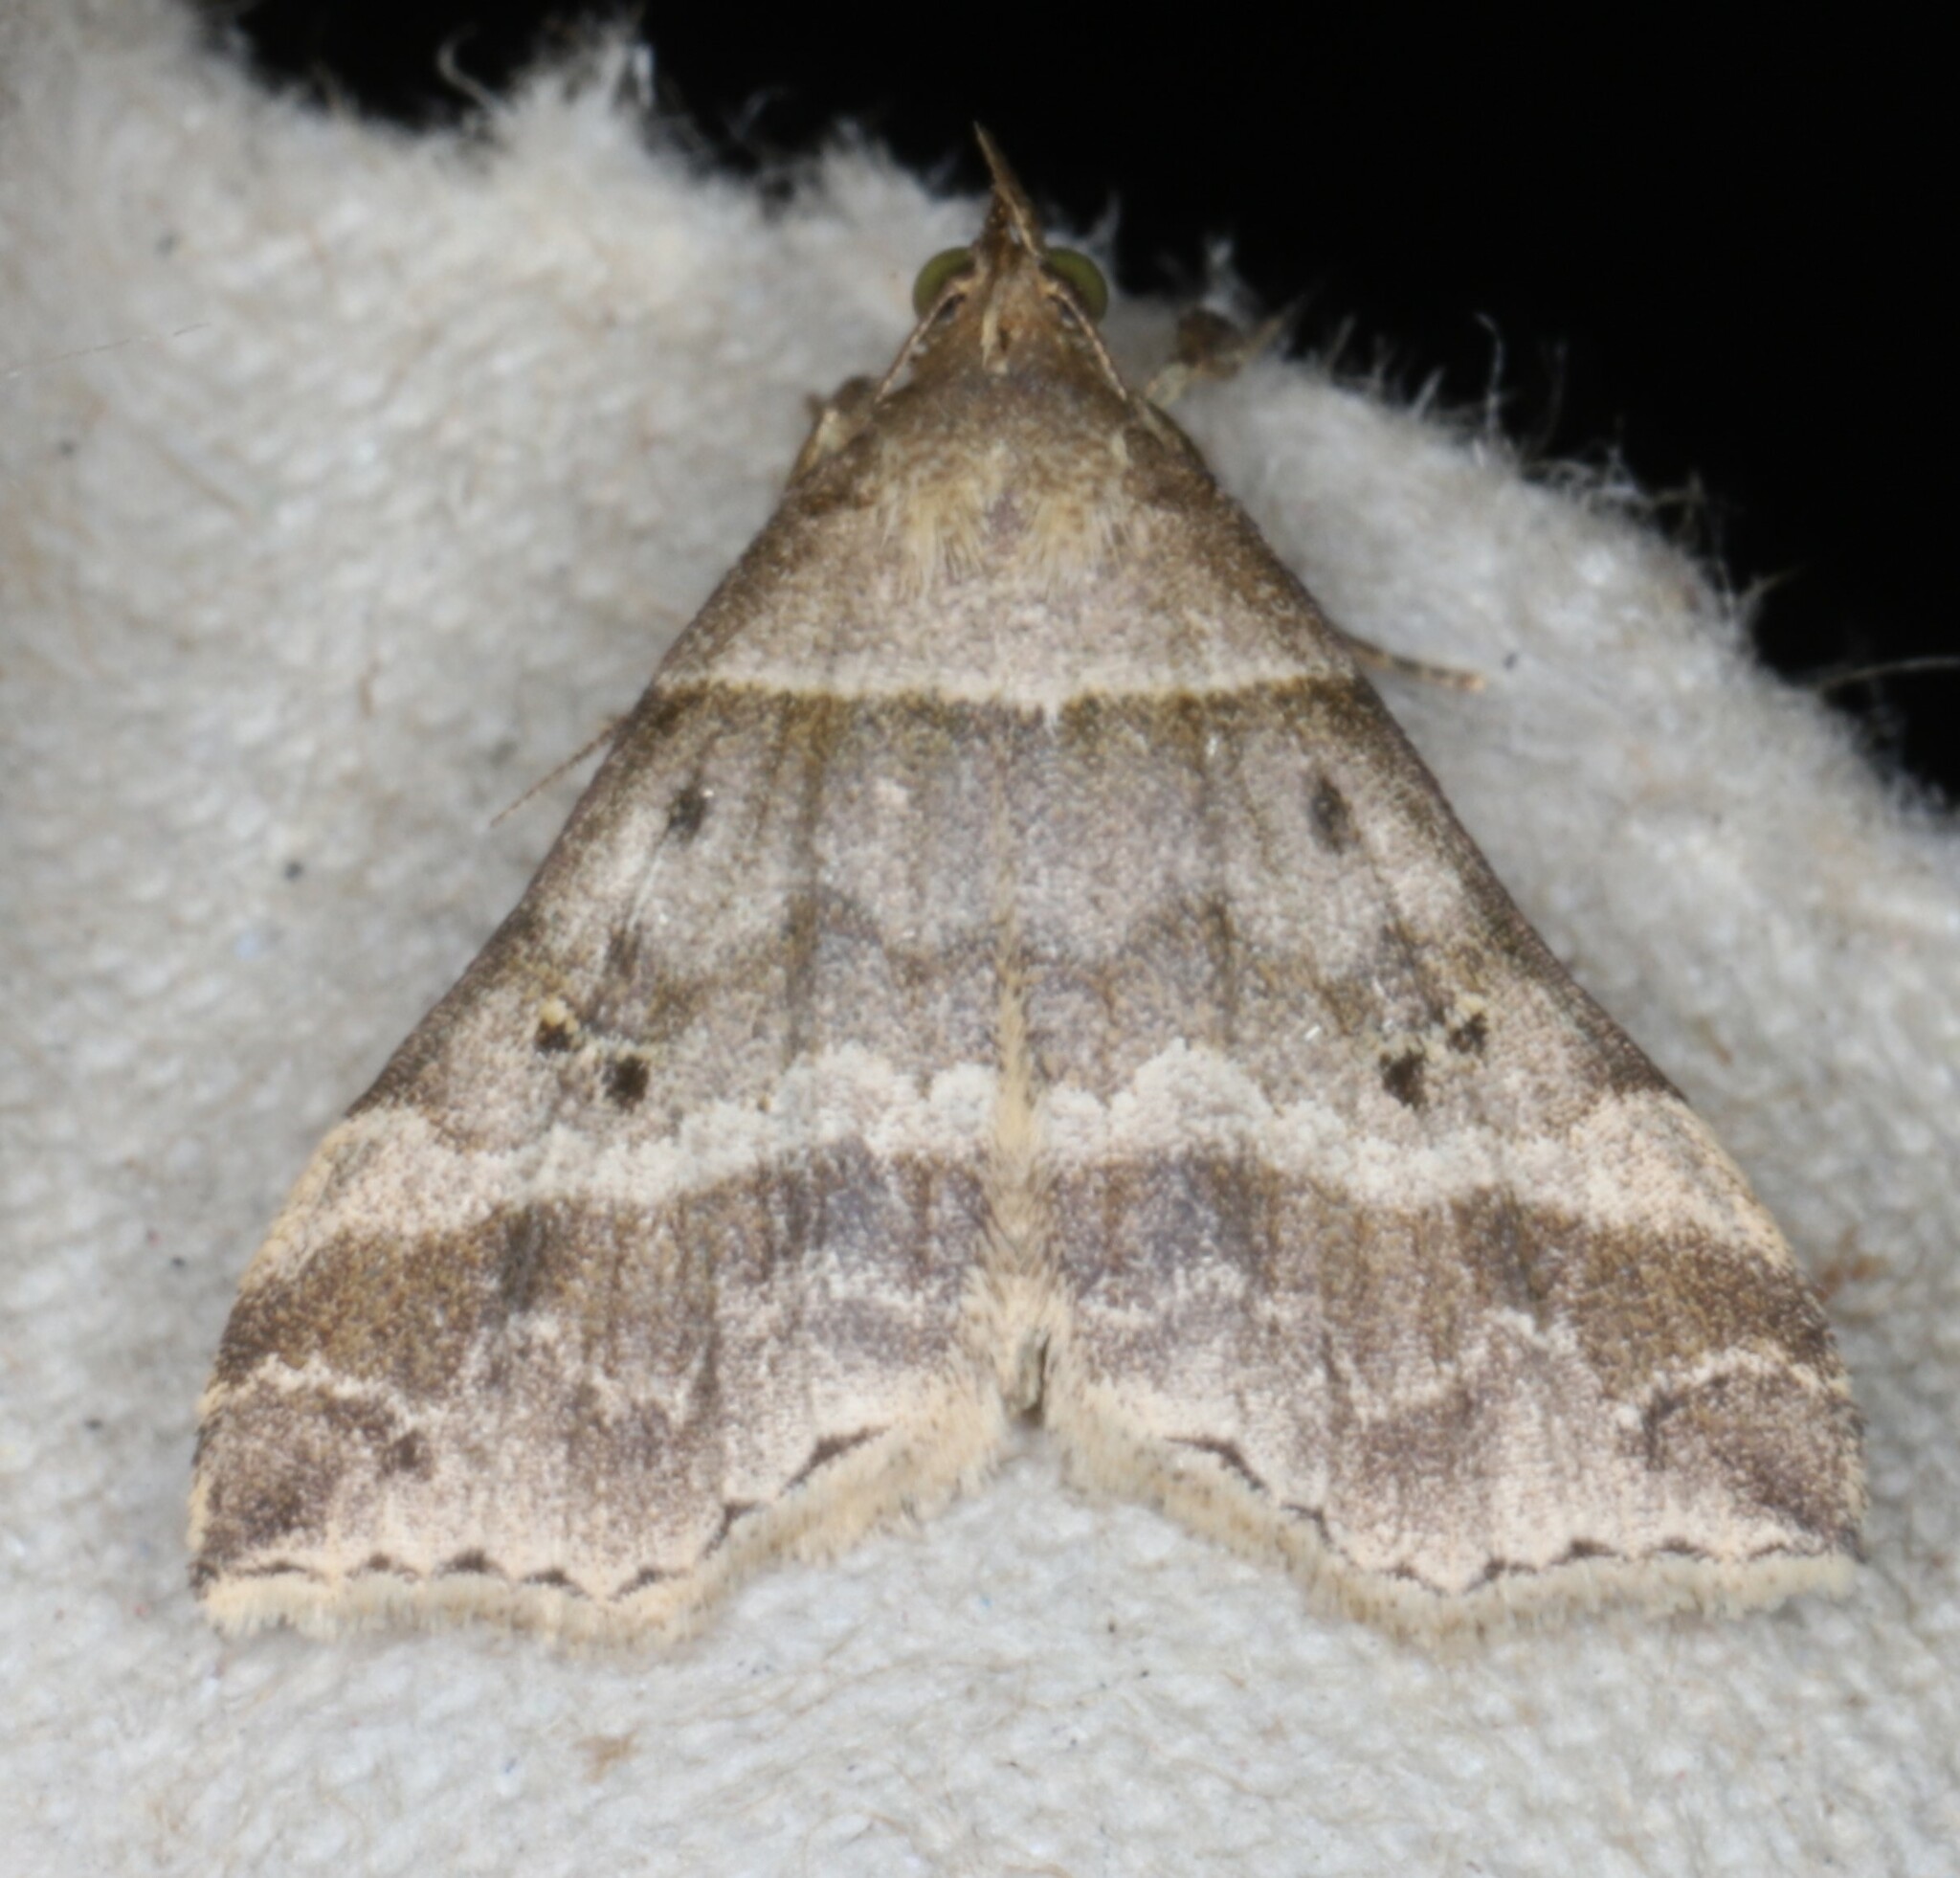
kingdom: Animalia
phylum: Arthropoda
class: Insecta
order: Lepidoptera
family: Erebidae
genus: Phaeolita
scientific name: Phaeolita pyramusalis
